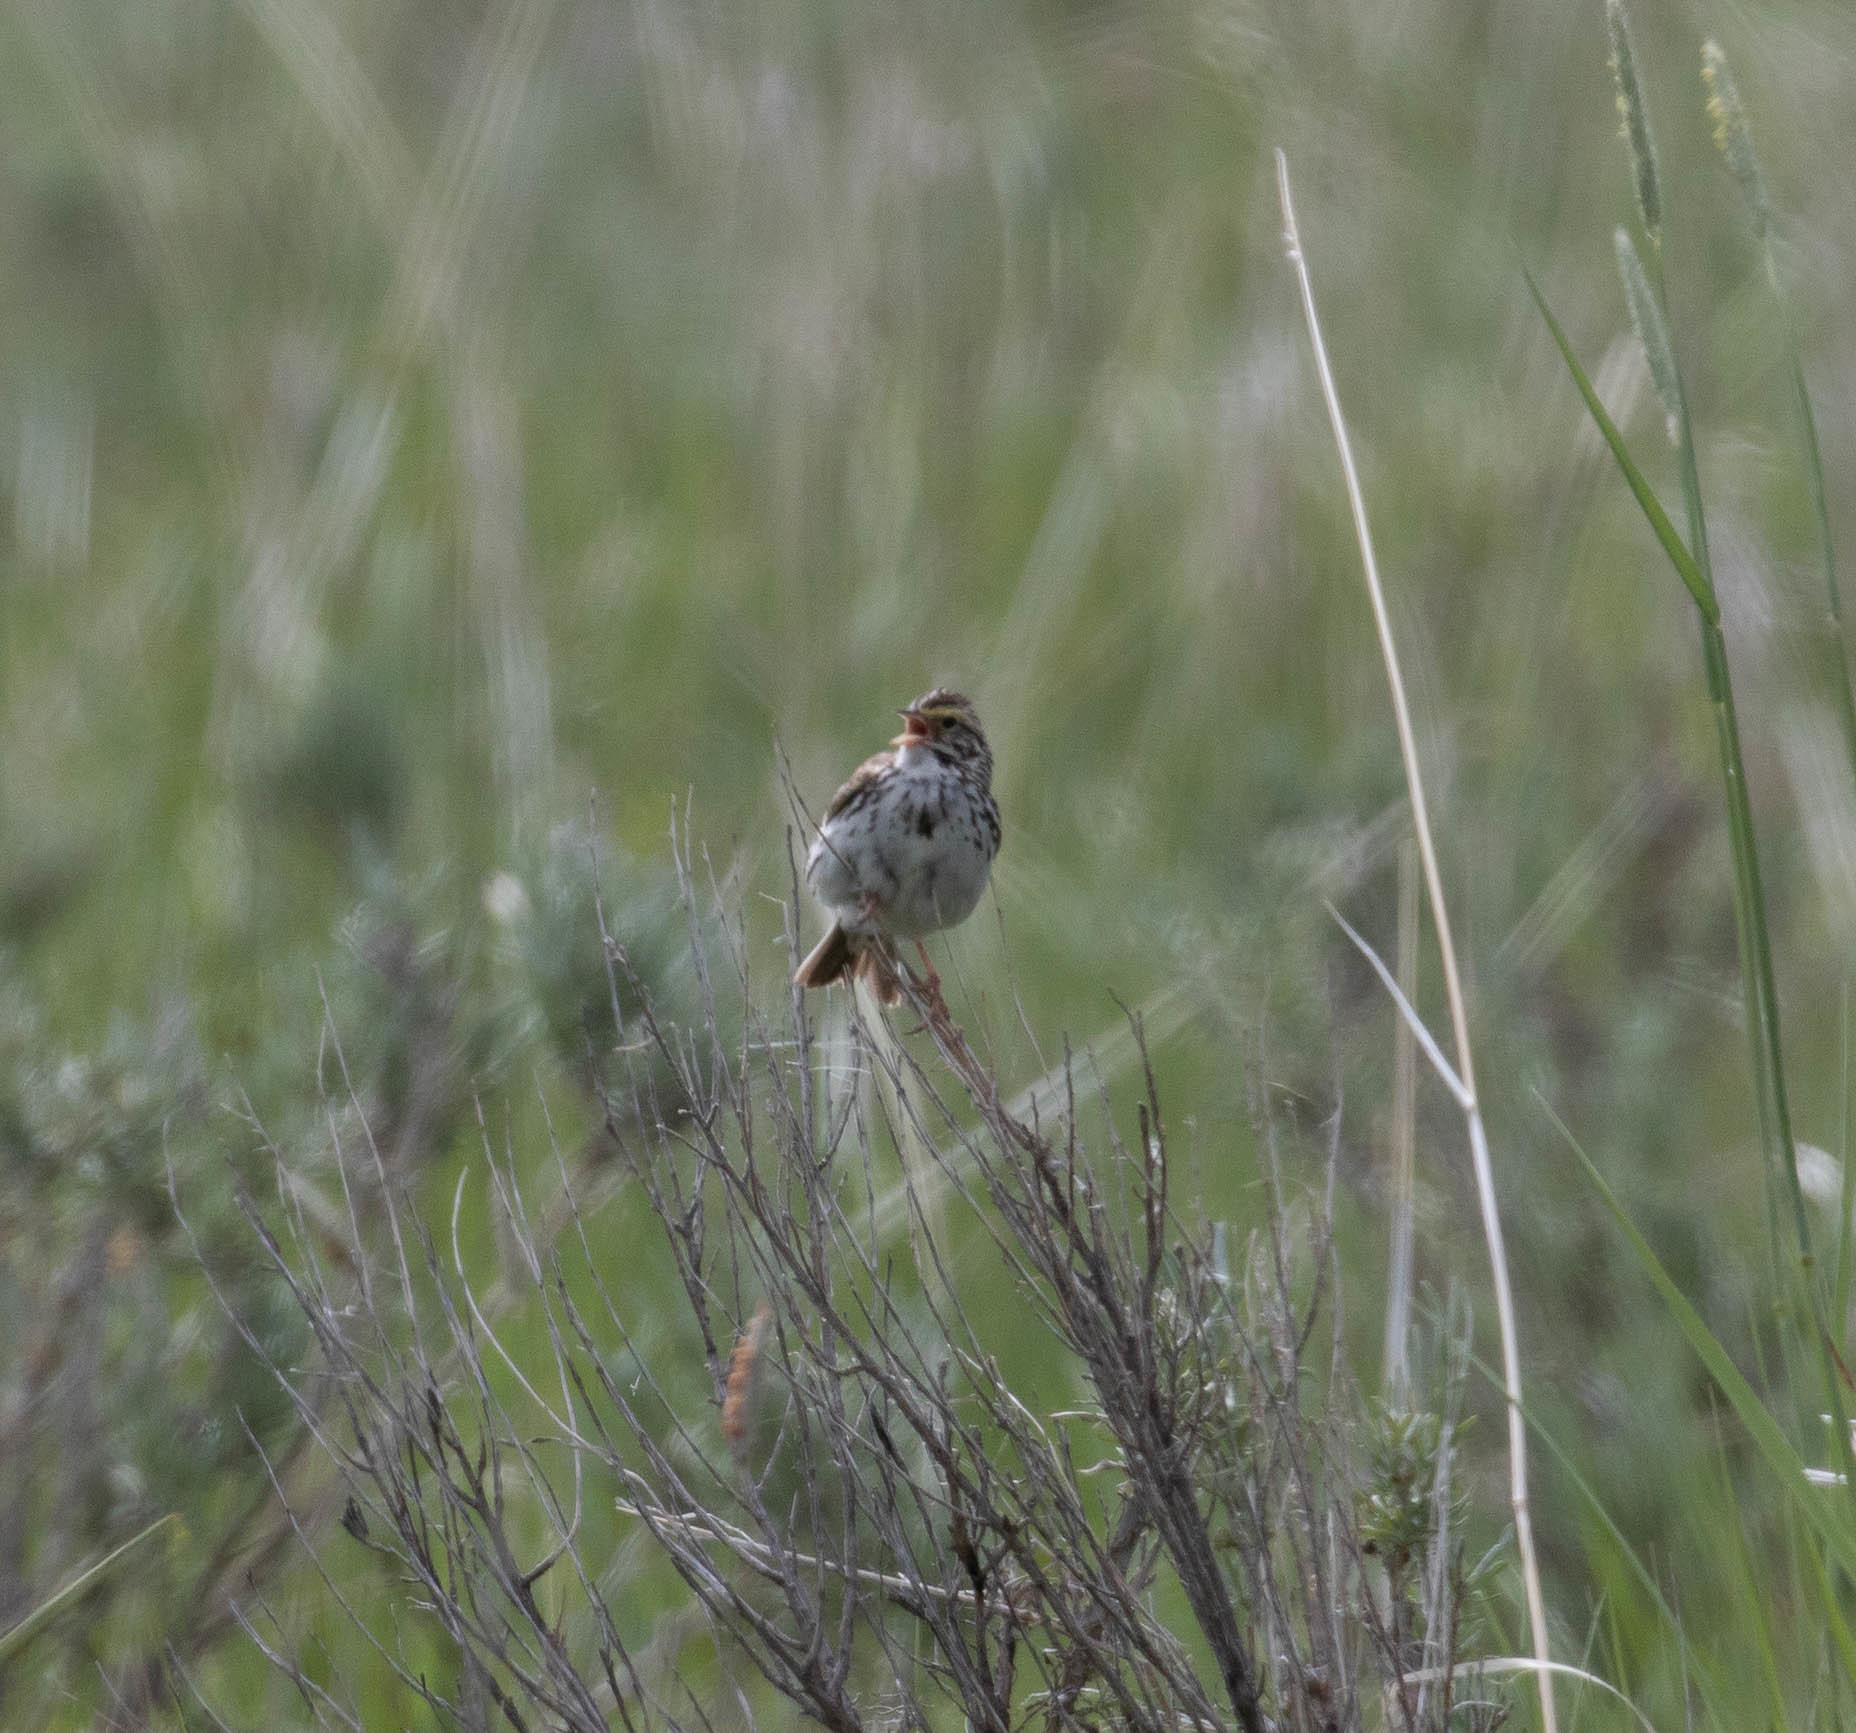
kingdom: Animalia
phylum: Chordata
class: Aves
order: Passeriformes
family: Passerellidae
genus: Passerculus
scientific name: Passerculus sandwichensis
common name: Savannah sparrow
